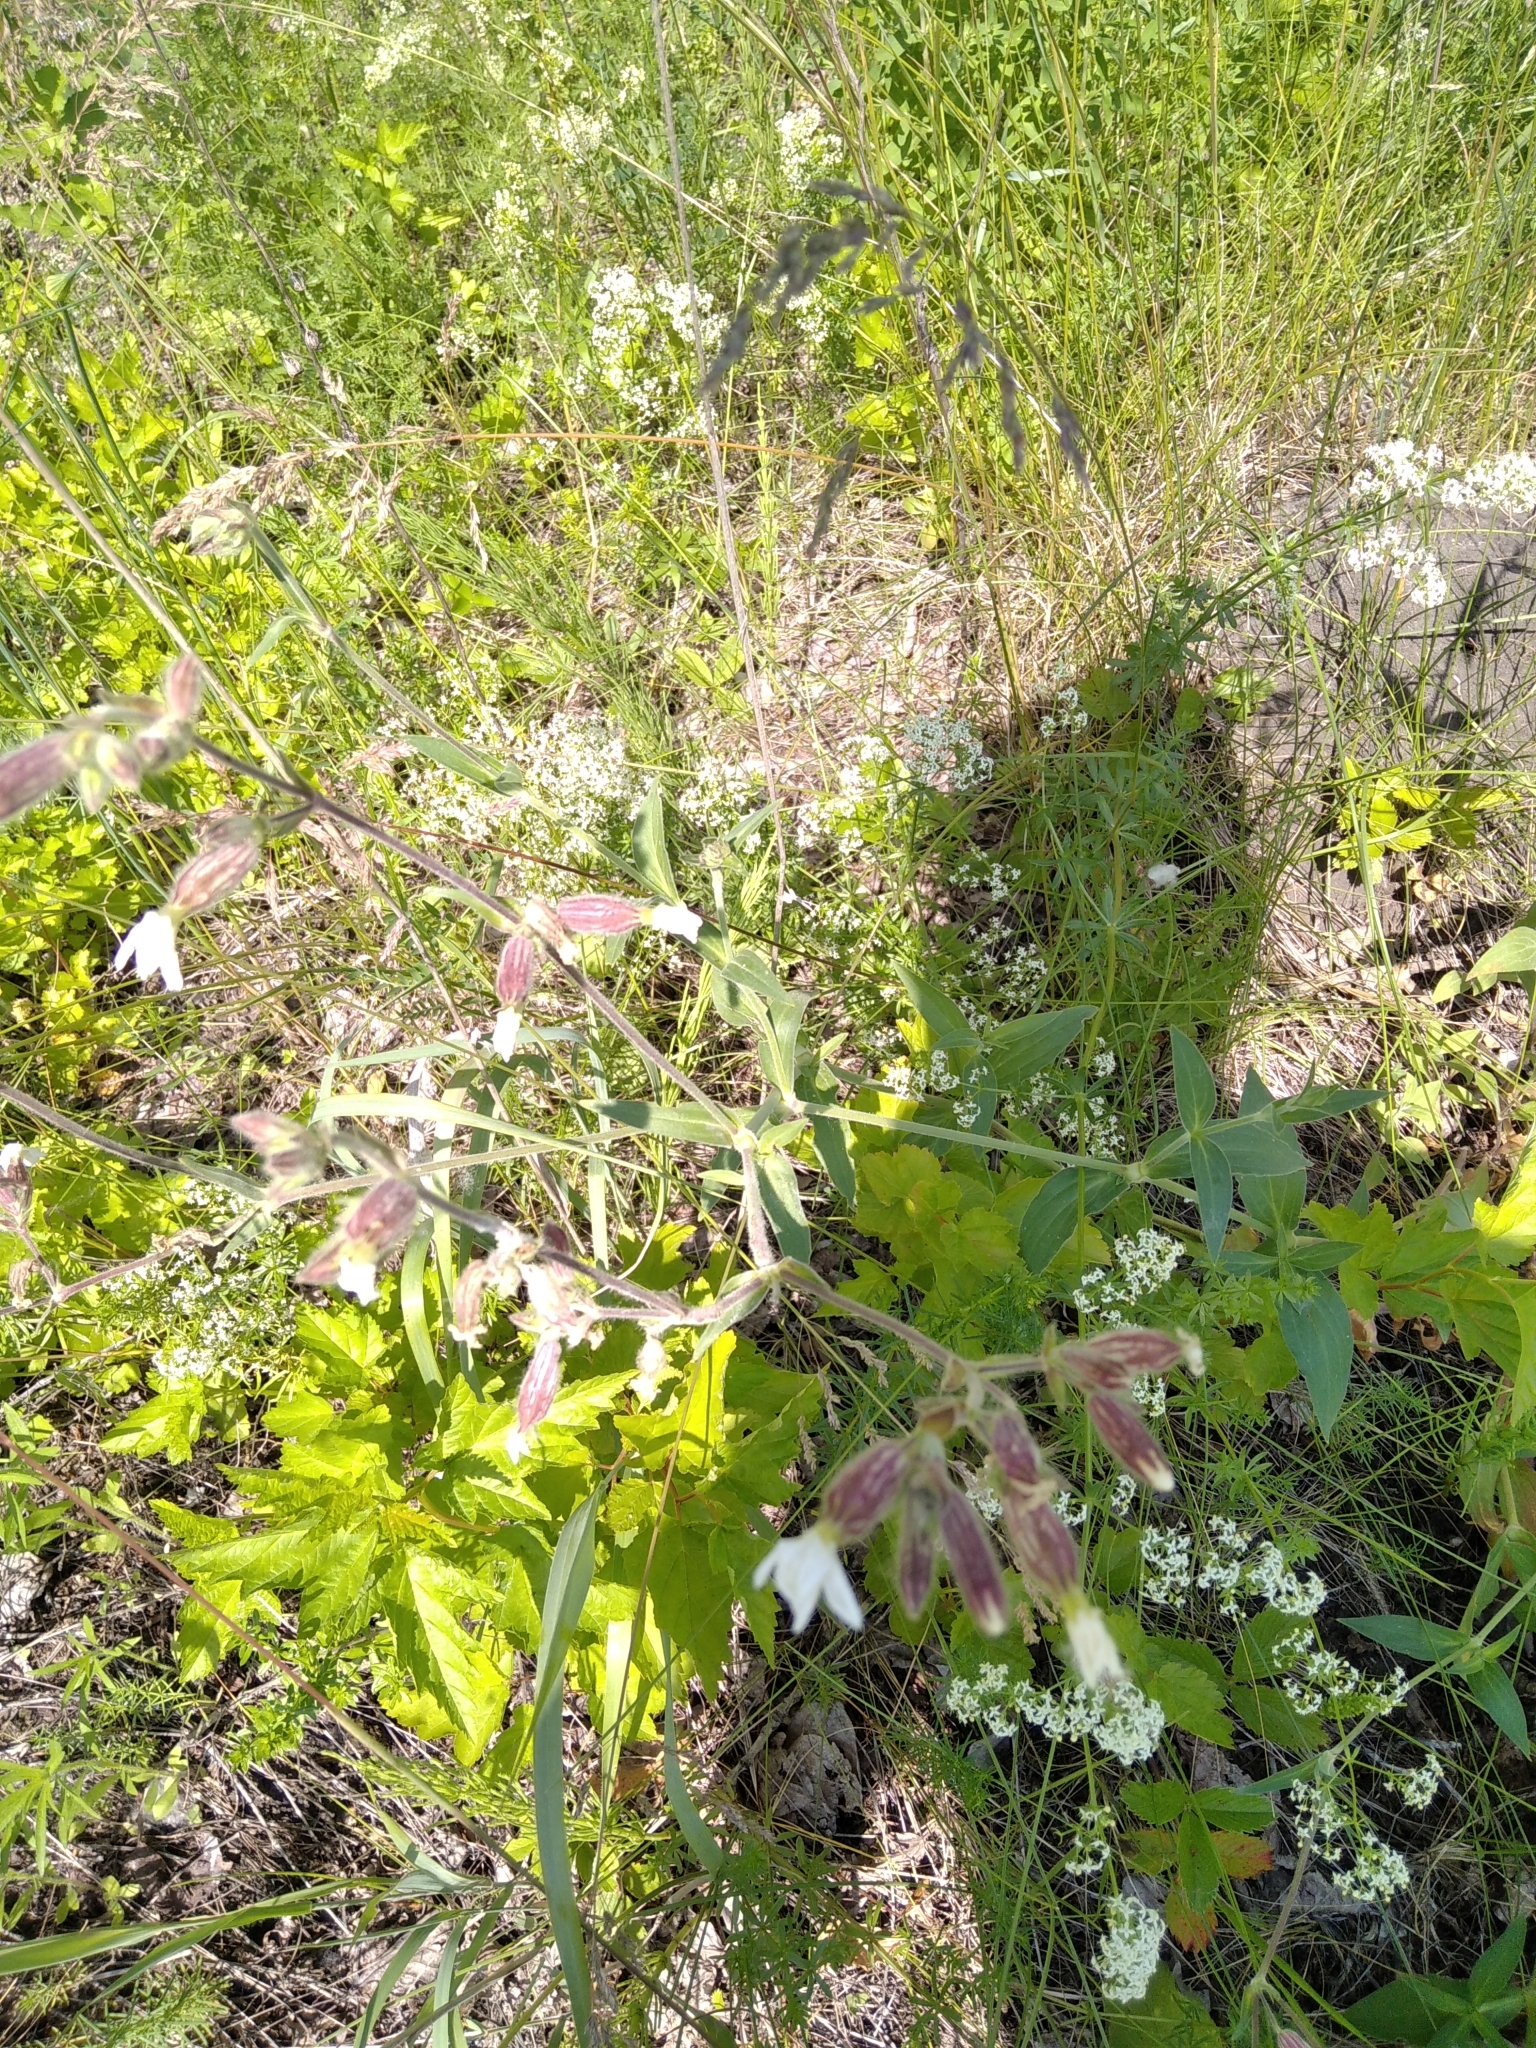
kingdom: Plantae
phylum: Tracheophyta
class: Magnoliopsida
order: Caryophyllales
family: Caryophyllaceae
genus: Silene
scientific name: Silene latifolia
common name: White campion
